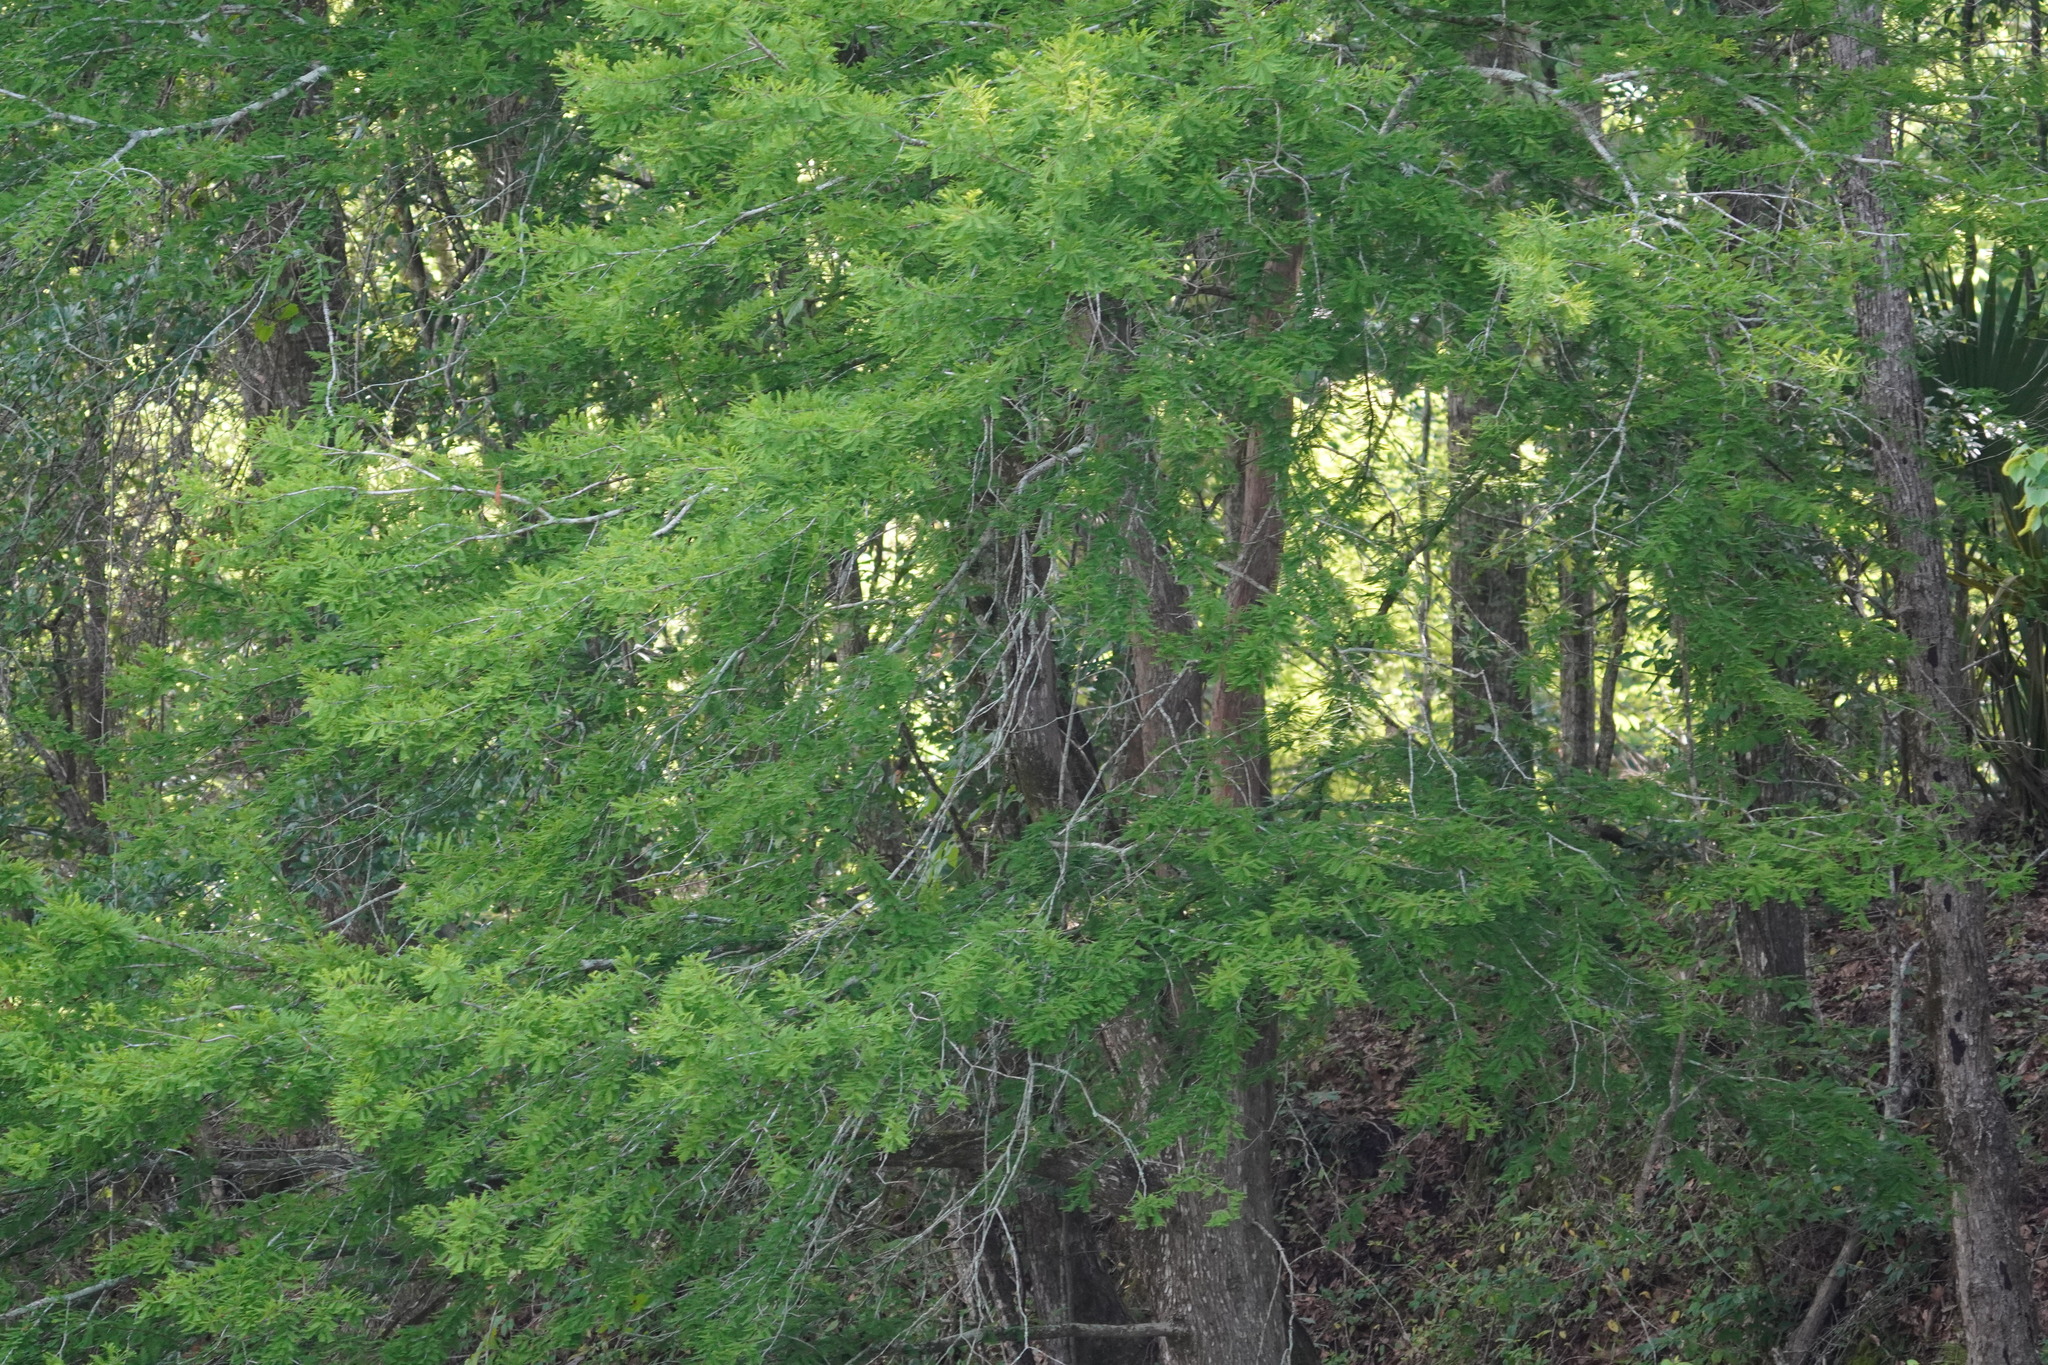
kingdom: Plantae
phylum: Tracheophyta
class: Pinopsida
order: Pinales
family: Cupressaceae
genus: Taxodium
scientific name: Taxodium distichum
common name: Bald cypress
